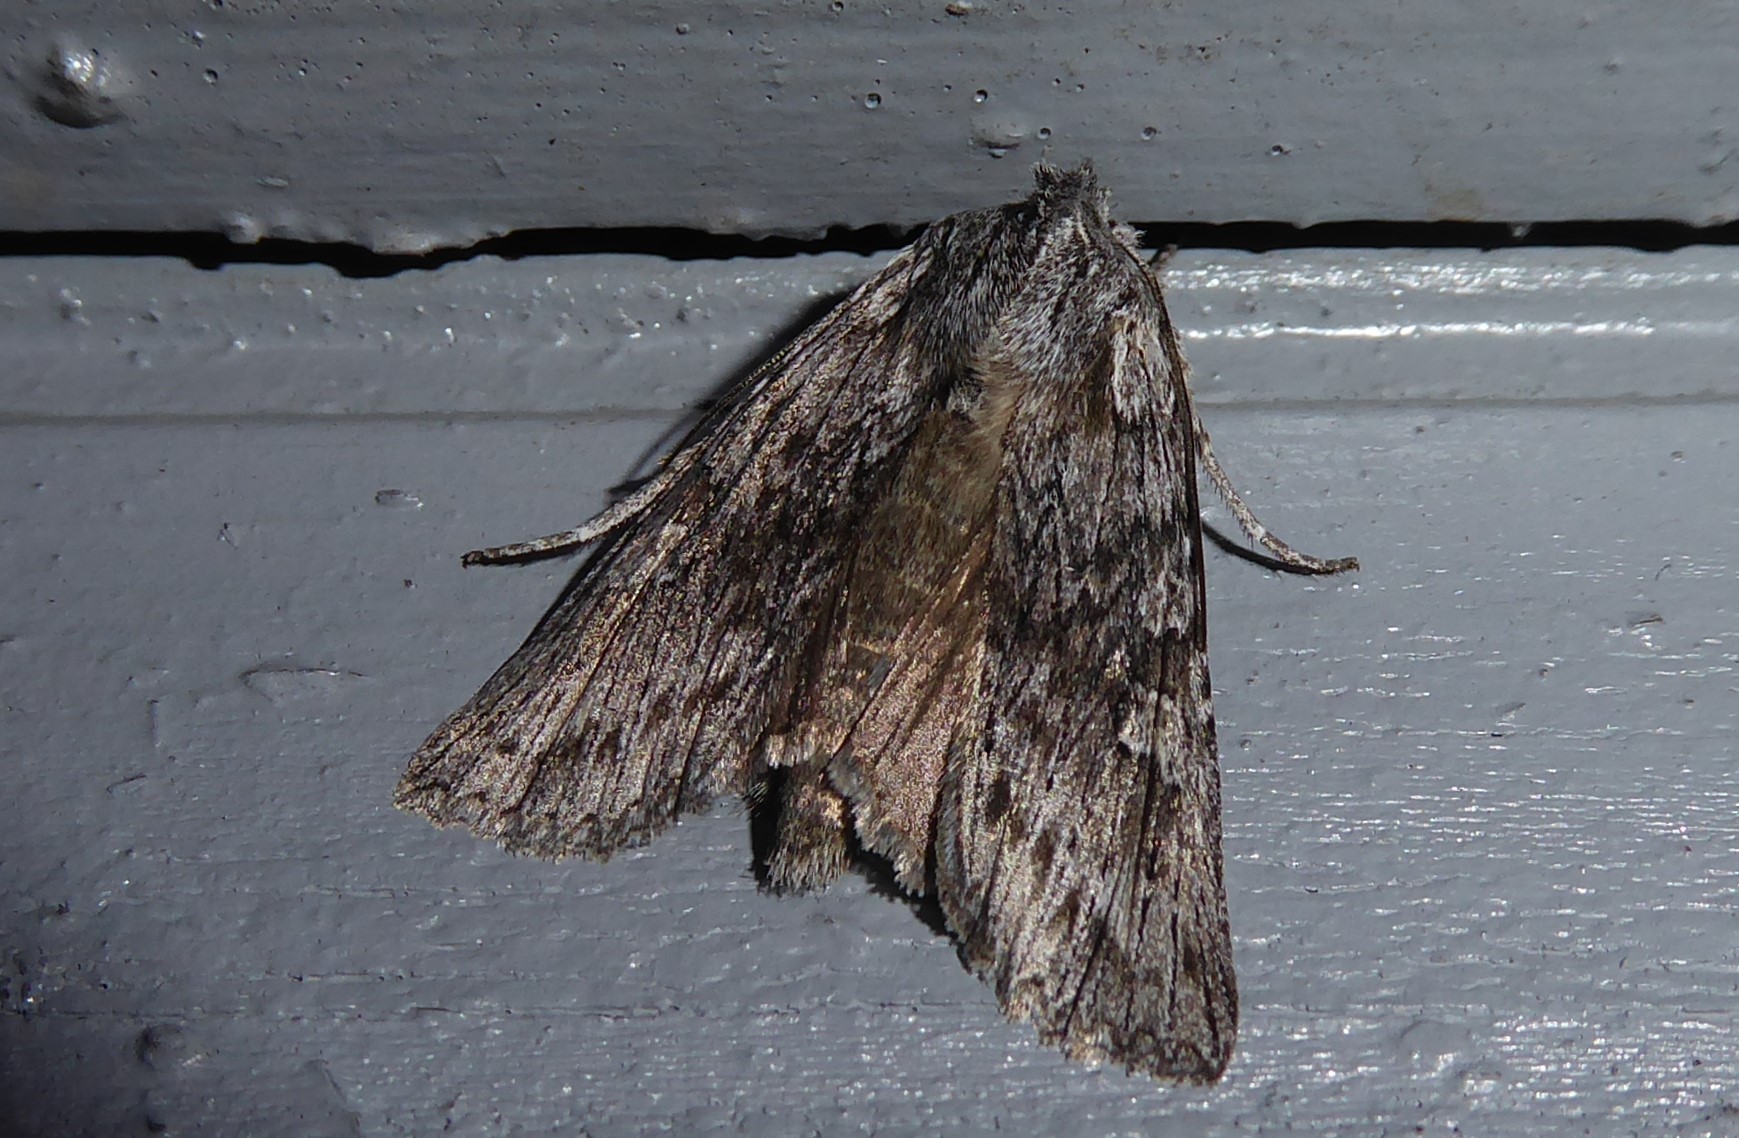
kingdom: Animalia
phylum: Arthropoda
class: Insecta
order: Lepidoptera
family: Noctuidae
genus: Physetica
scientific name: Physetica phricias
